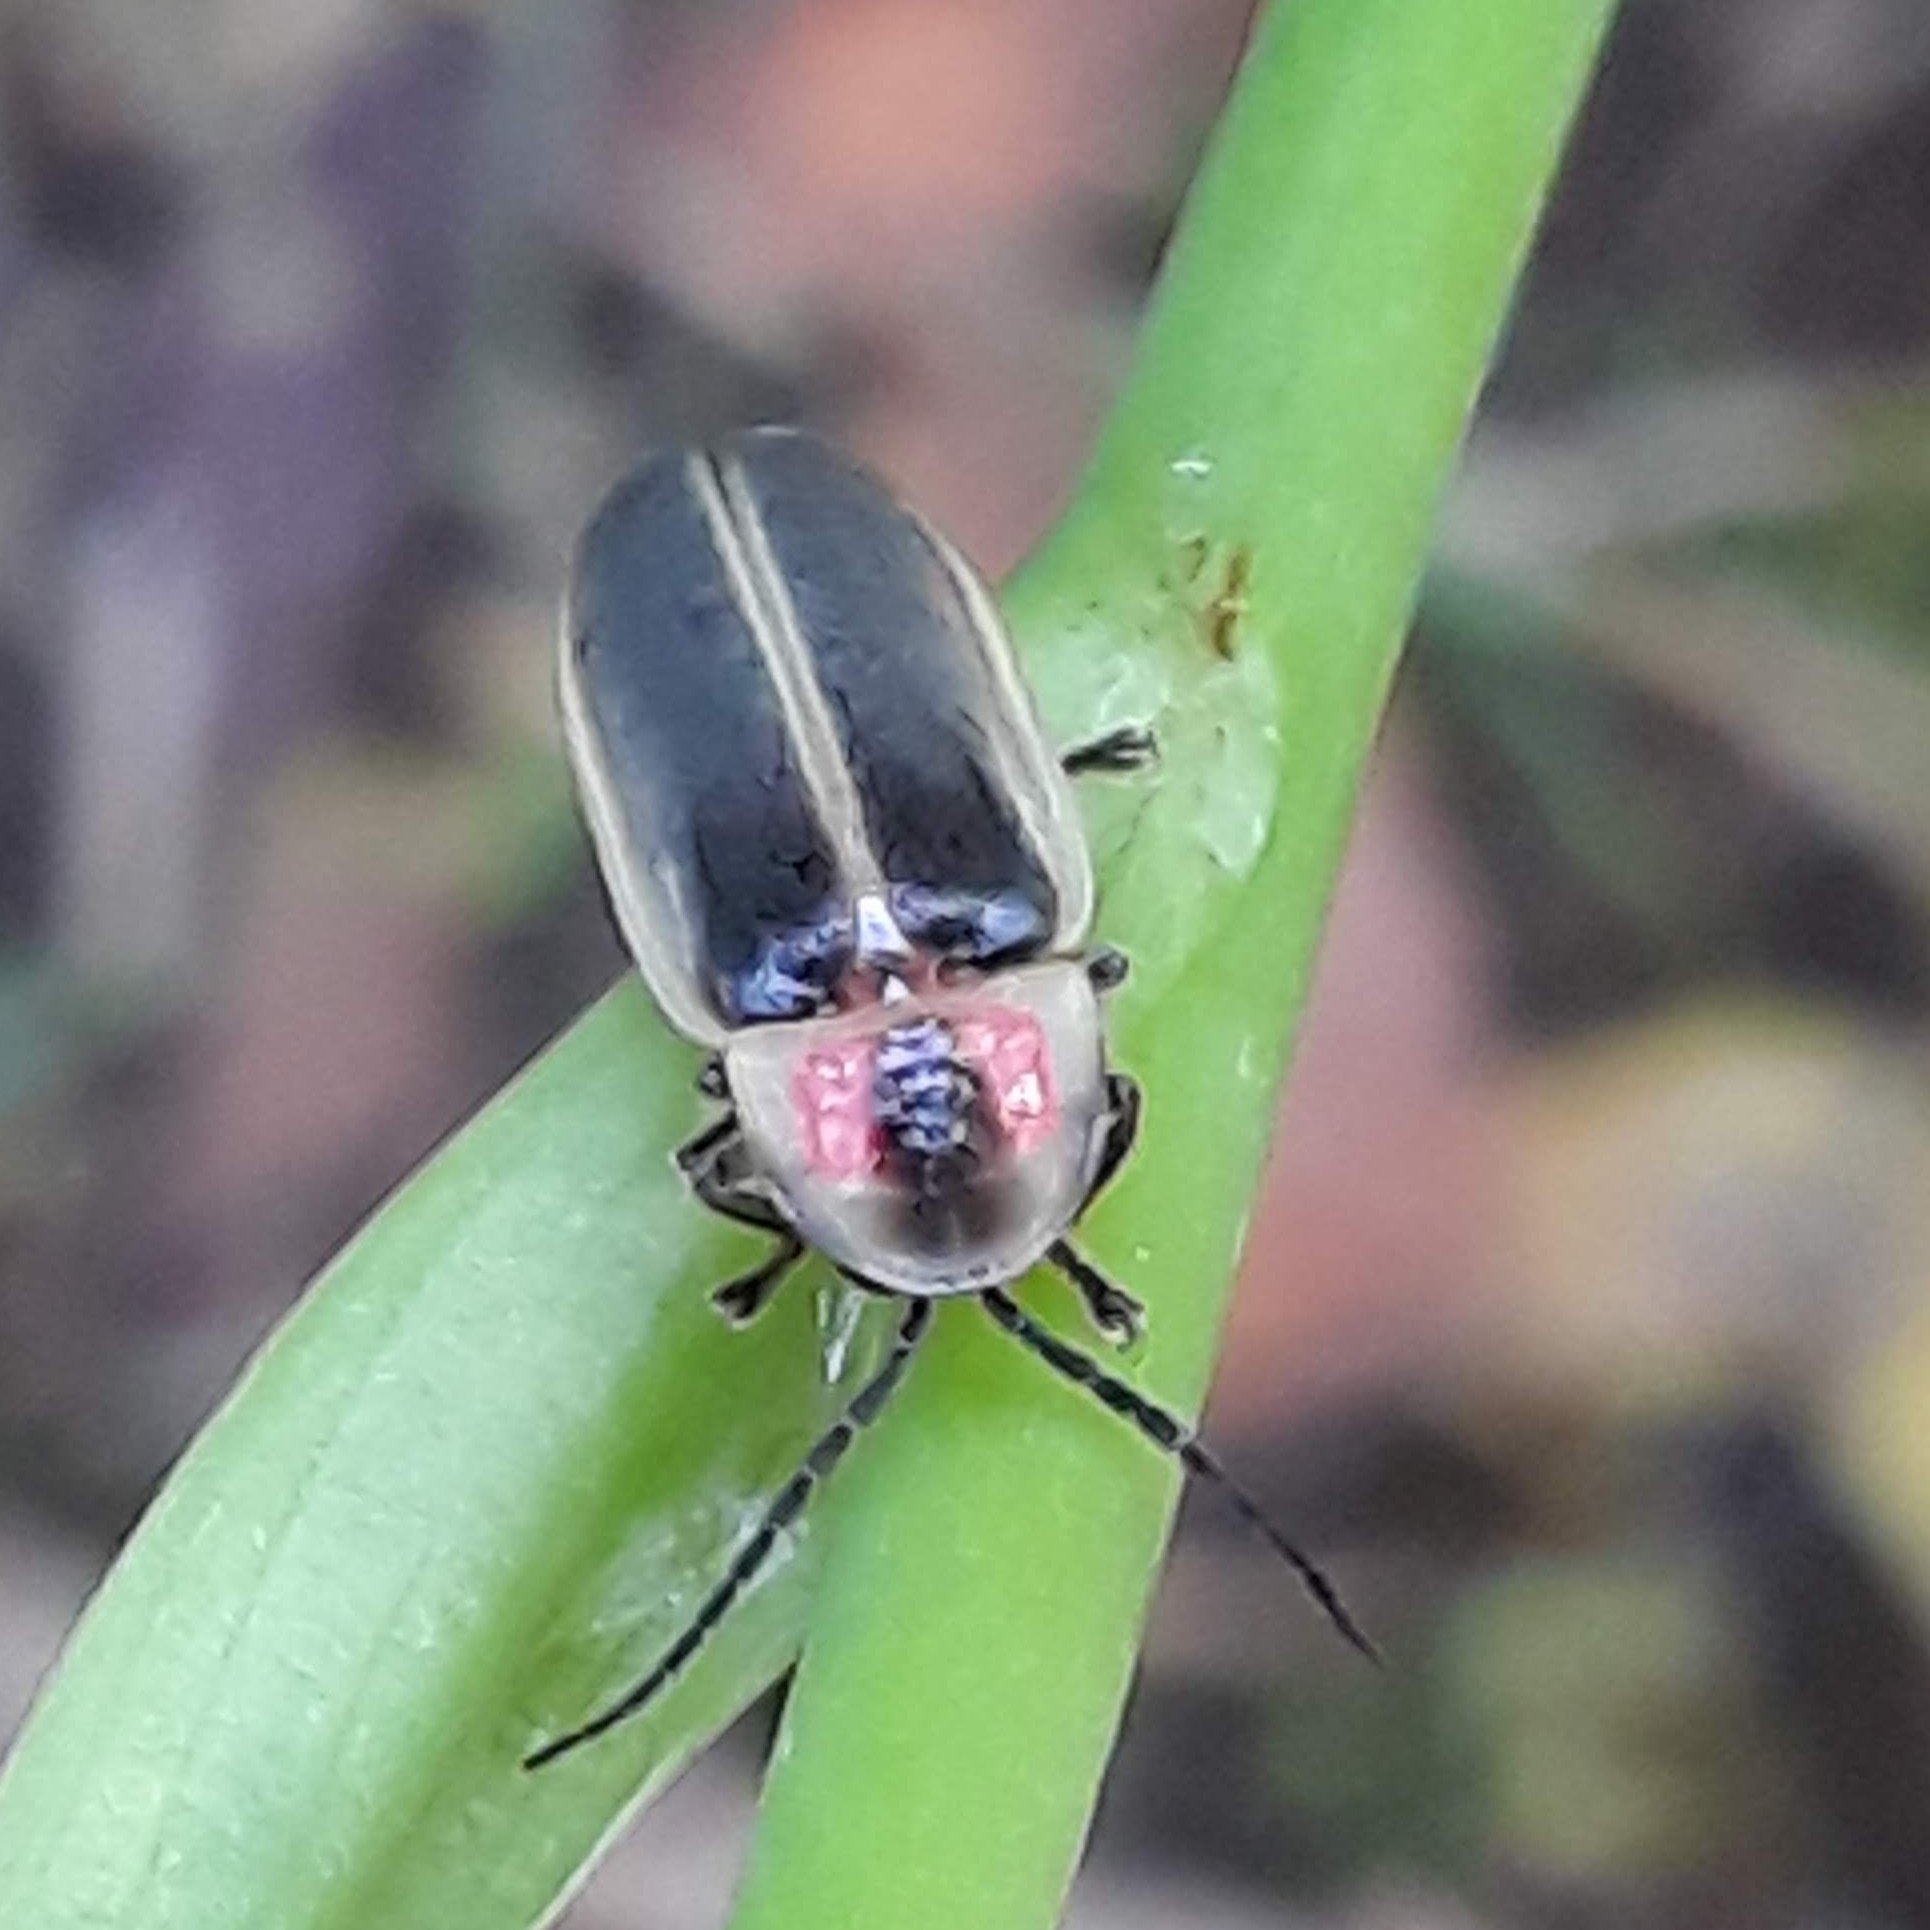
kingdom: Animalia
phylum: Arthropoda
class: Insecta
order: Coleoptera
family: Lampyridae
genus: Photinus
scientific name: Photinus pyralis
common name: Big dipper firefly
